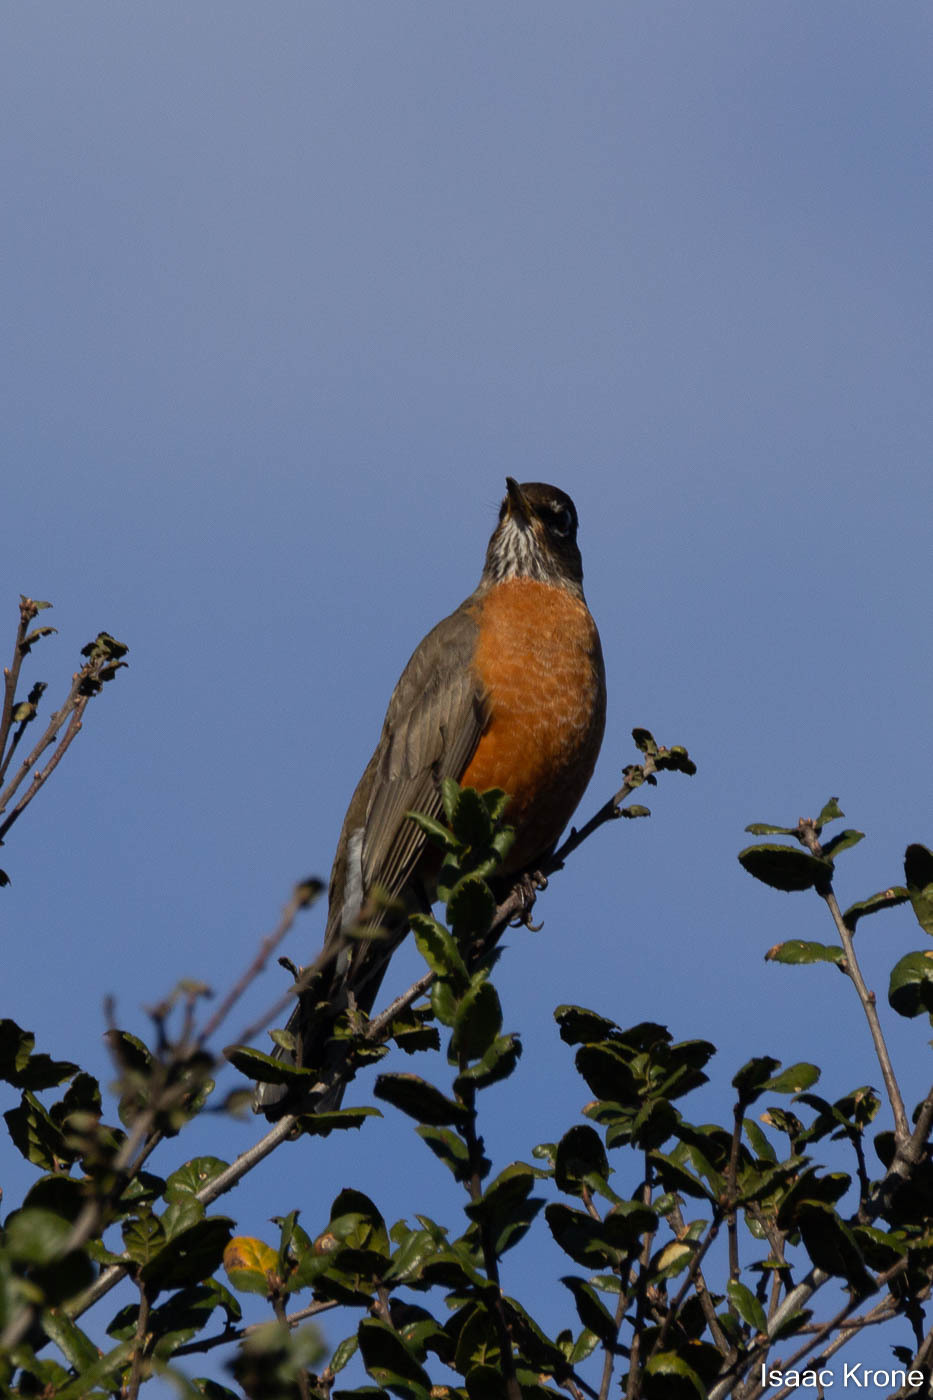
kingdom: Animalia
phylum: Chordata
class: Aves
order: Passeriformes
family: Turdidae
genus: Turdus
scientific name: Turdus migratorius
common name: American robin
